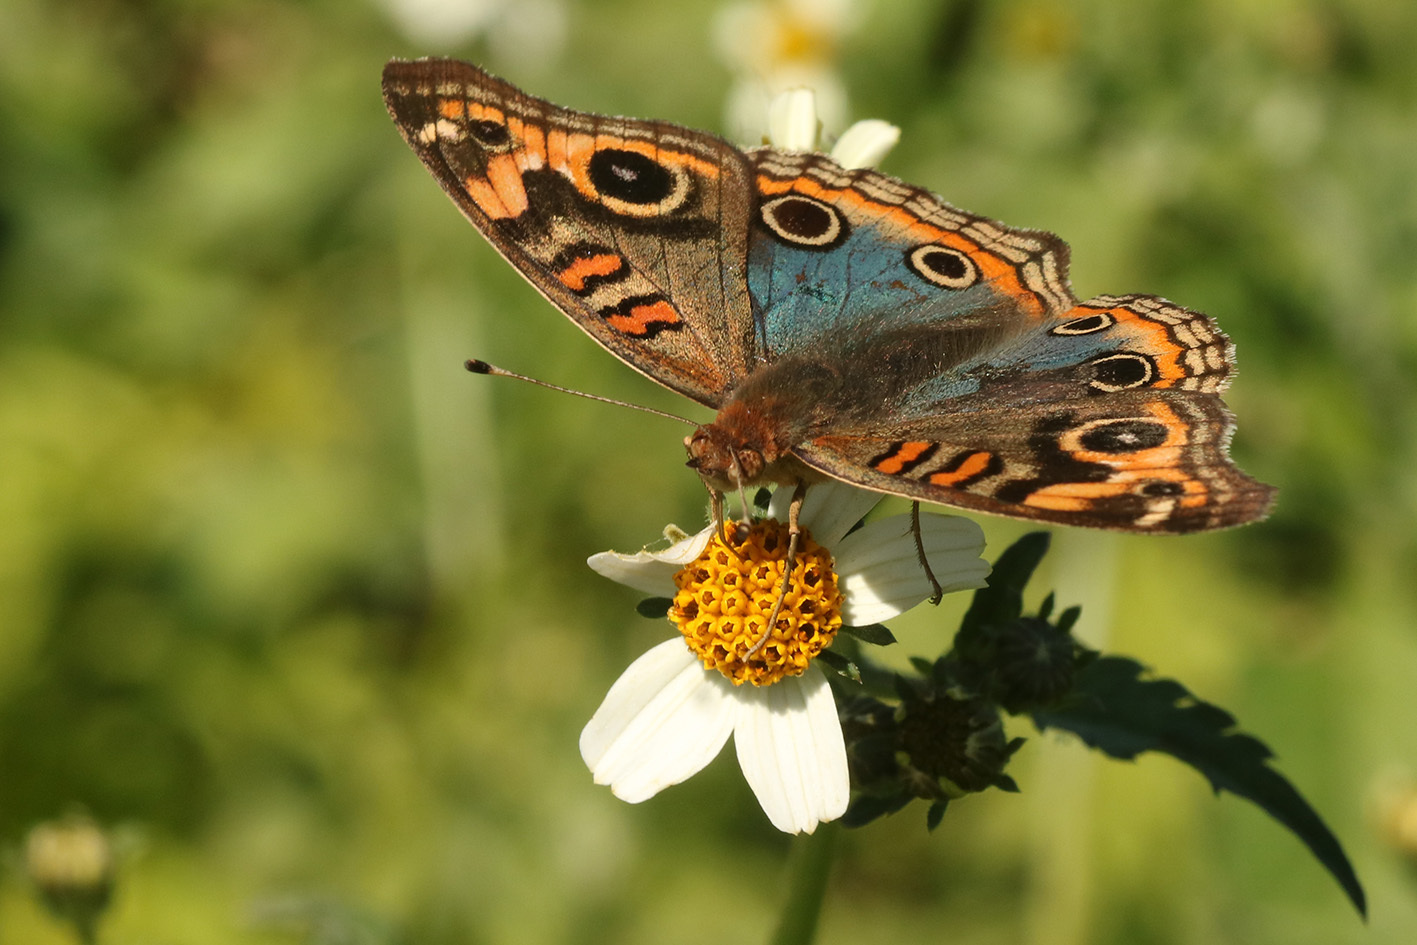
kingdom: Animalia
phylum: Arthropoda
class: Insecta
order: Lepidoptera
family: Nymphalidae
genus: Junonia
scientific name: Junonia lavinia
